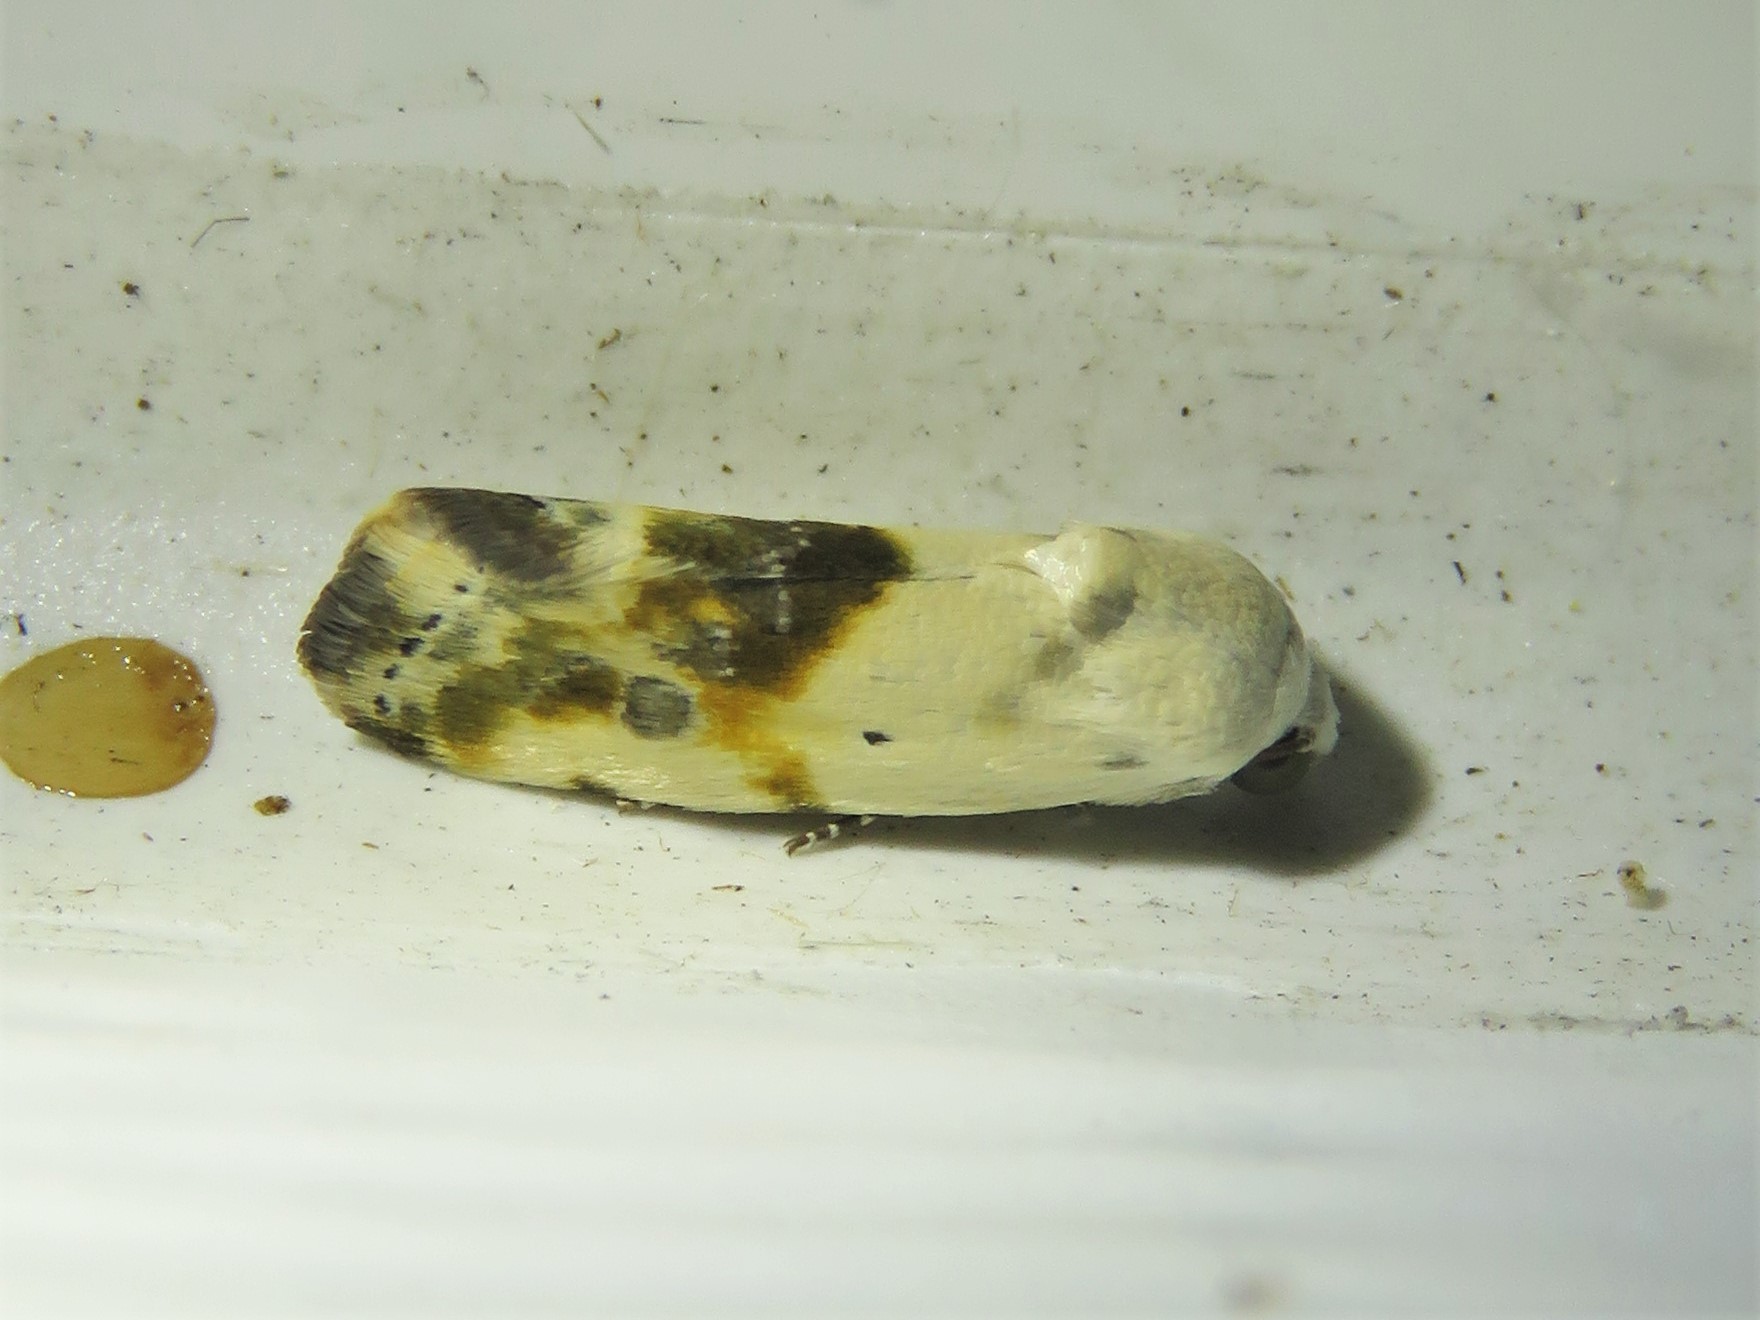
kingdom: Animalia
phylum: Arthropoda
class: Insecta
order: Lepidoptera
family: Noctuidae
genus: Acontia
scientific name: Acontia candefacta
